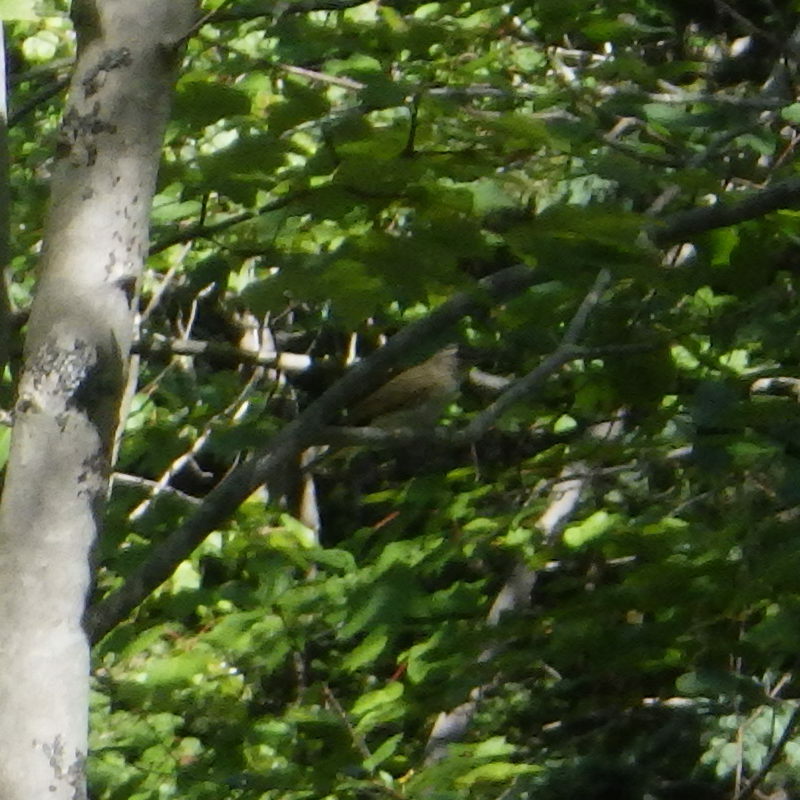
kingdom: Animalia
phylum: Chordata
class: Aves
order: Passeriformes
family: Vireonidae
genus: Vireo
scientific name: Vireo olivaceus
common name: Red-eyed vireo
